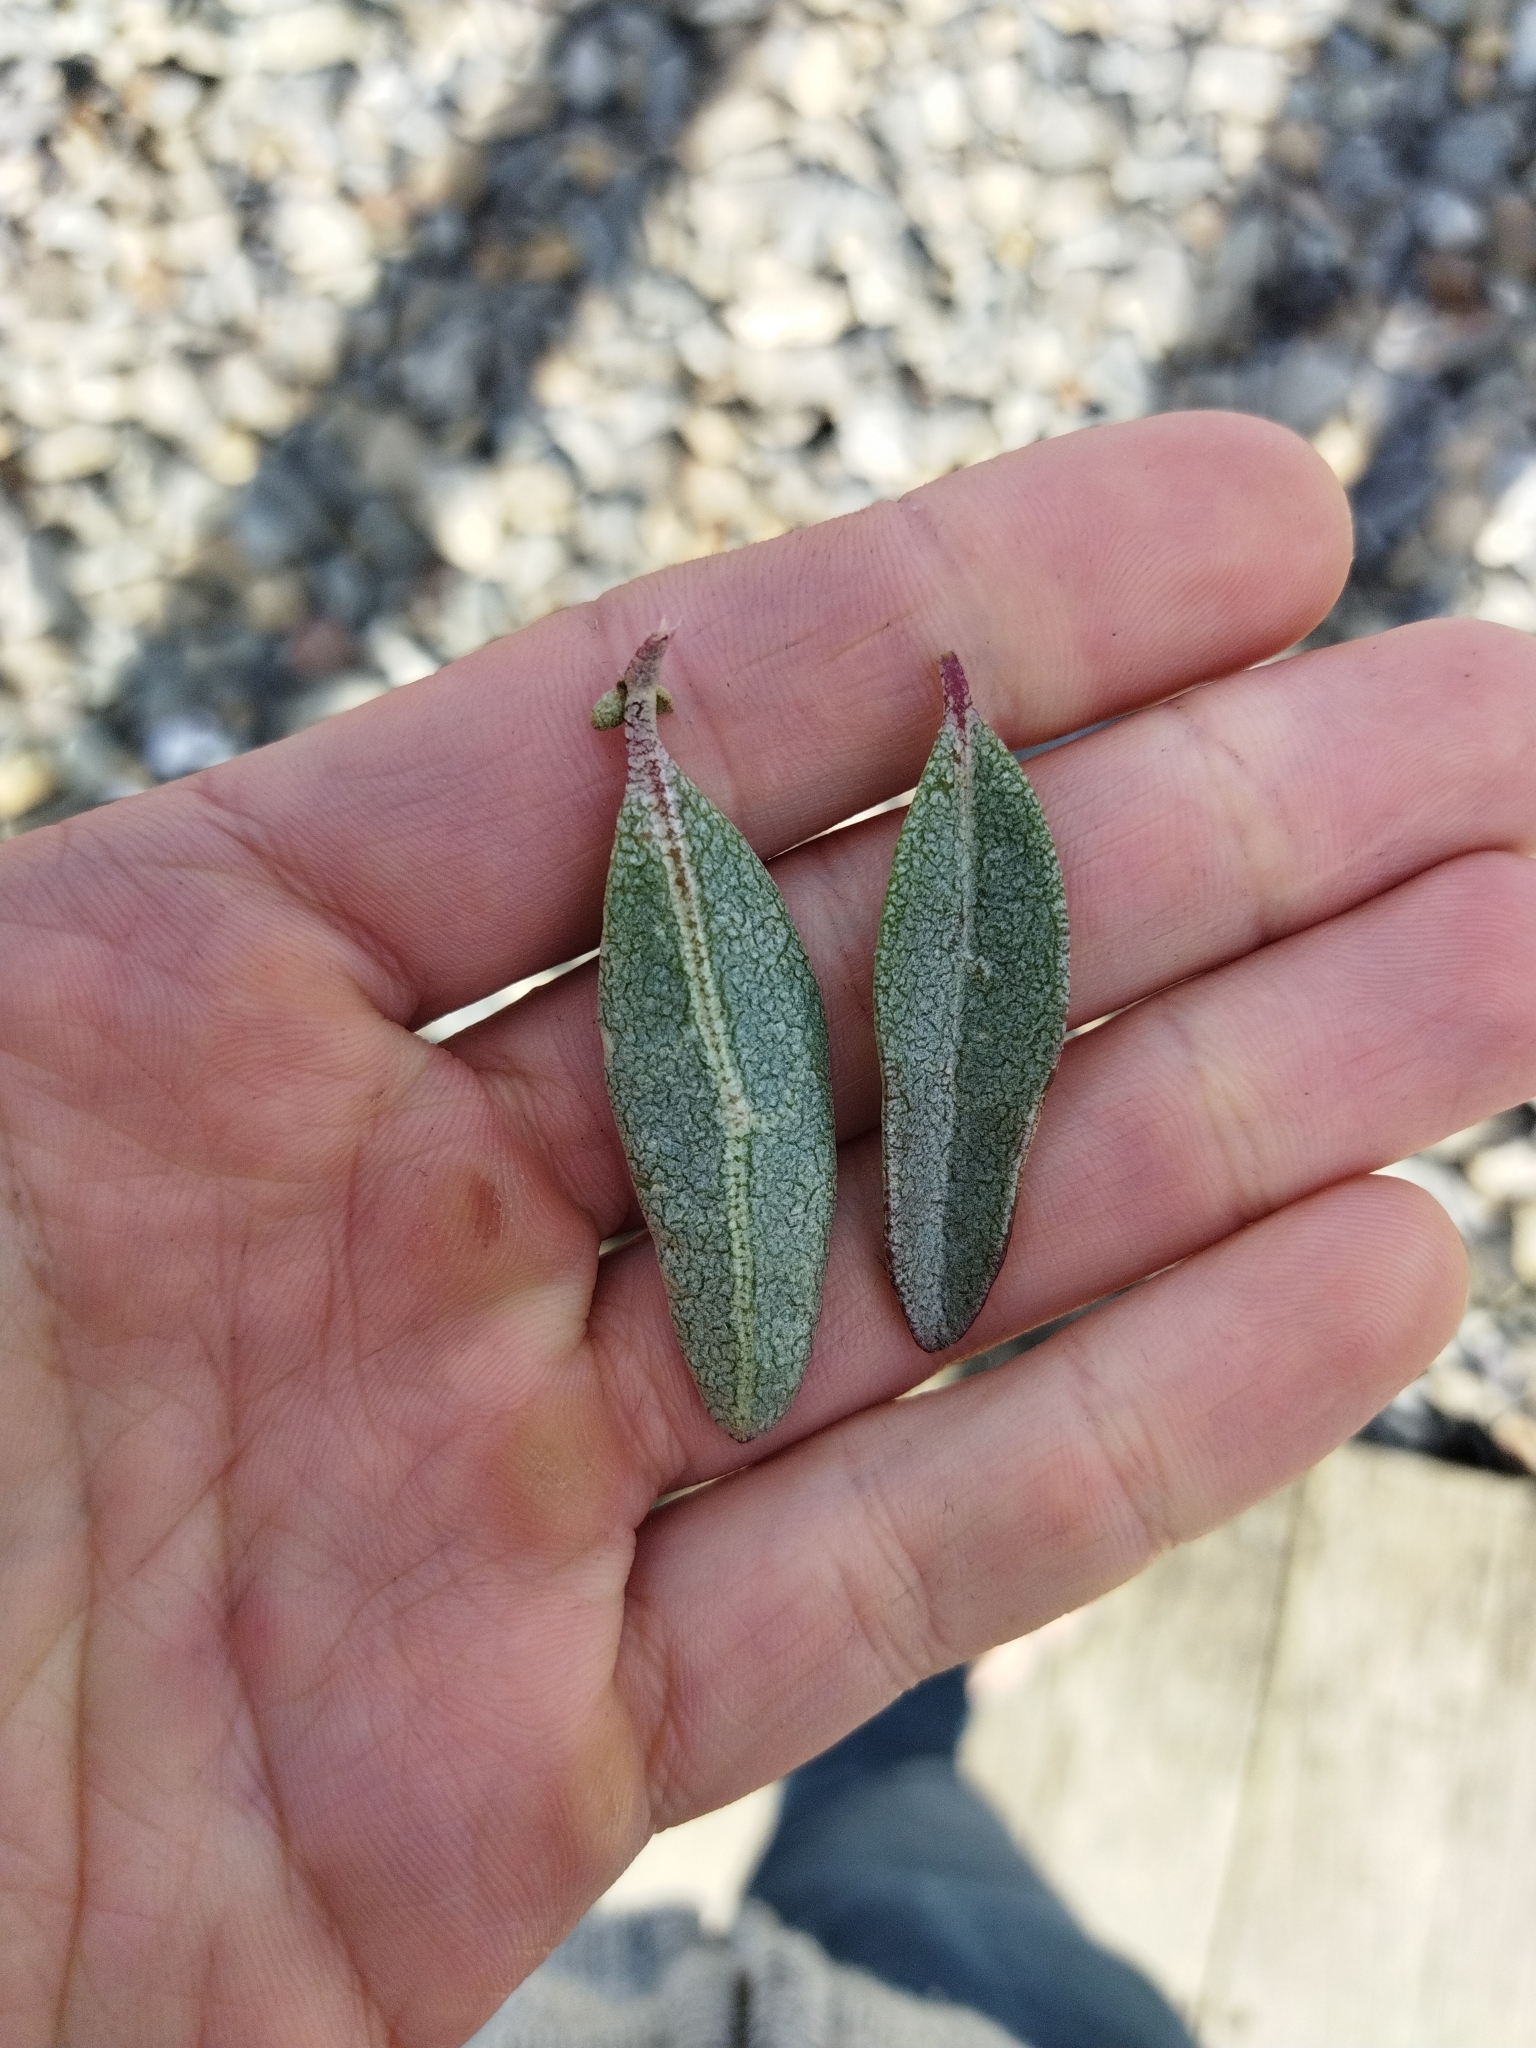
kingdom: Plantae
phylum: Tracheophyta
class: Magnoliopsida
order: Caryophyllales
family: Amaranthaceae
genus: Atriplex
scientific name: Atriplex cinerea
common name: Grey saltbush
